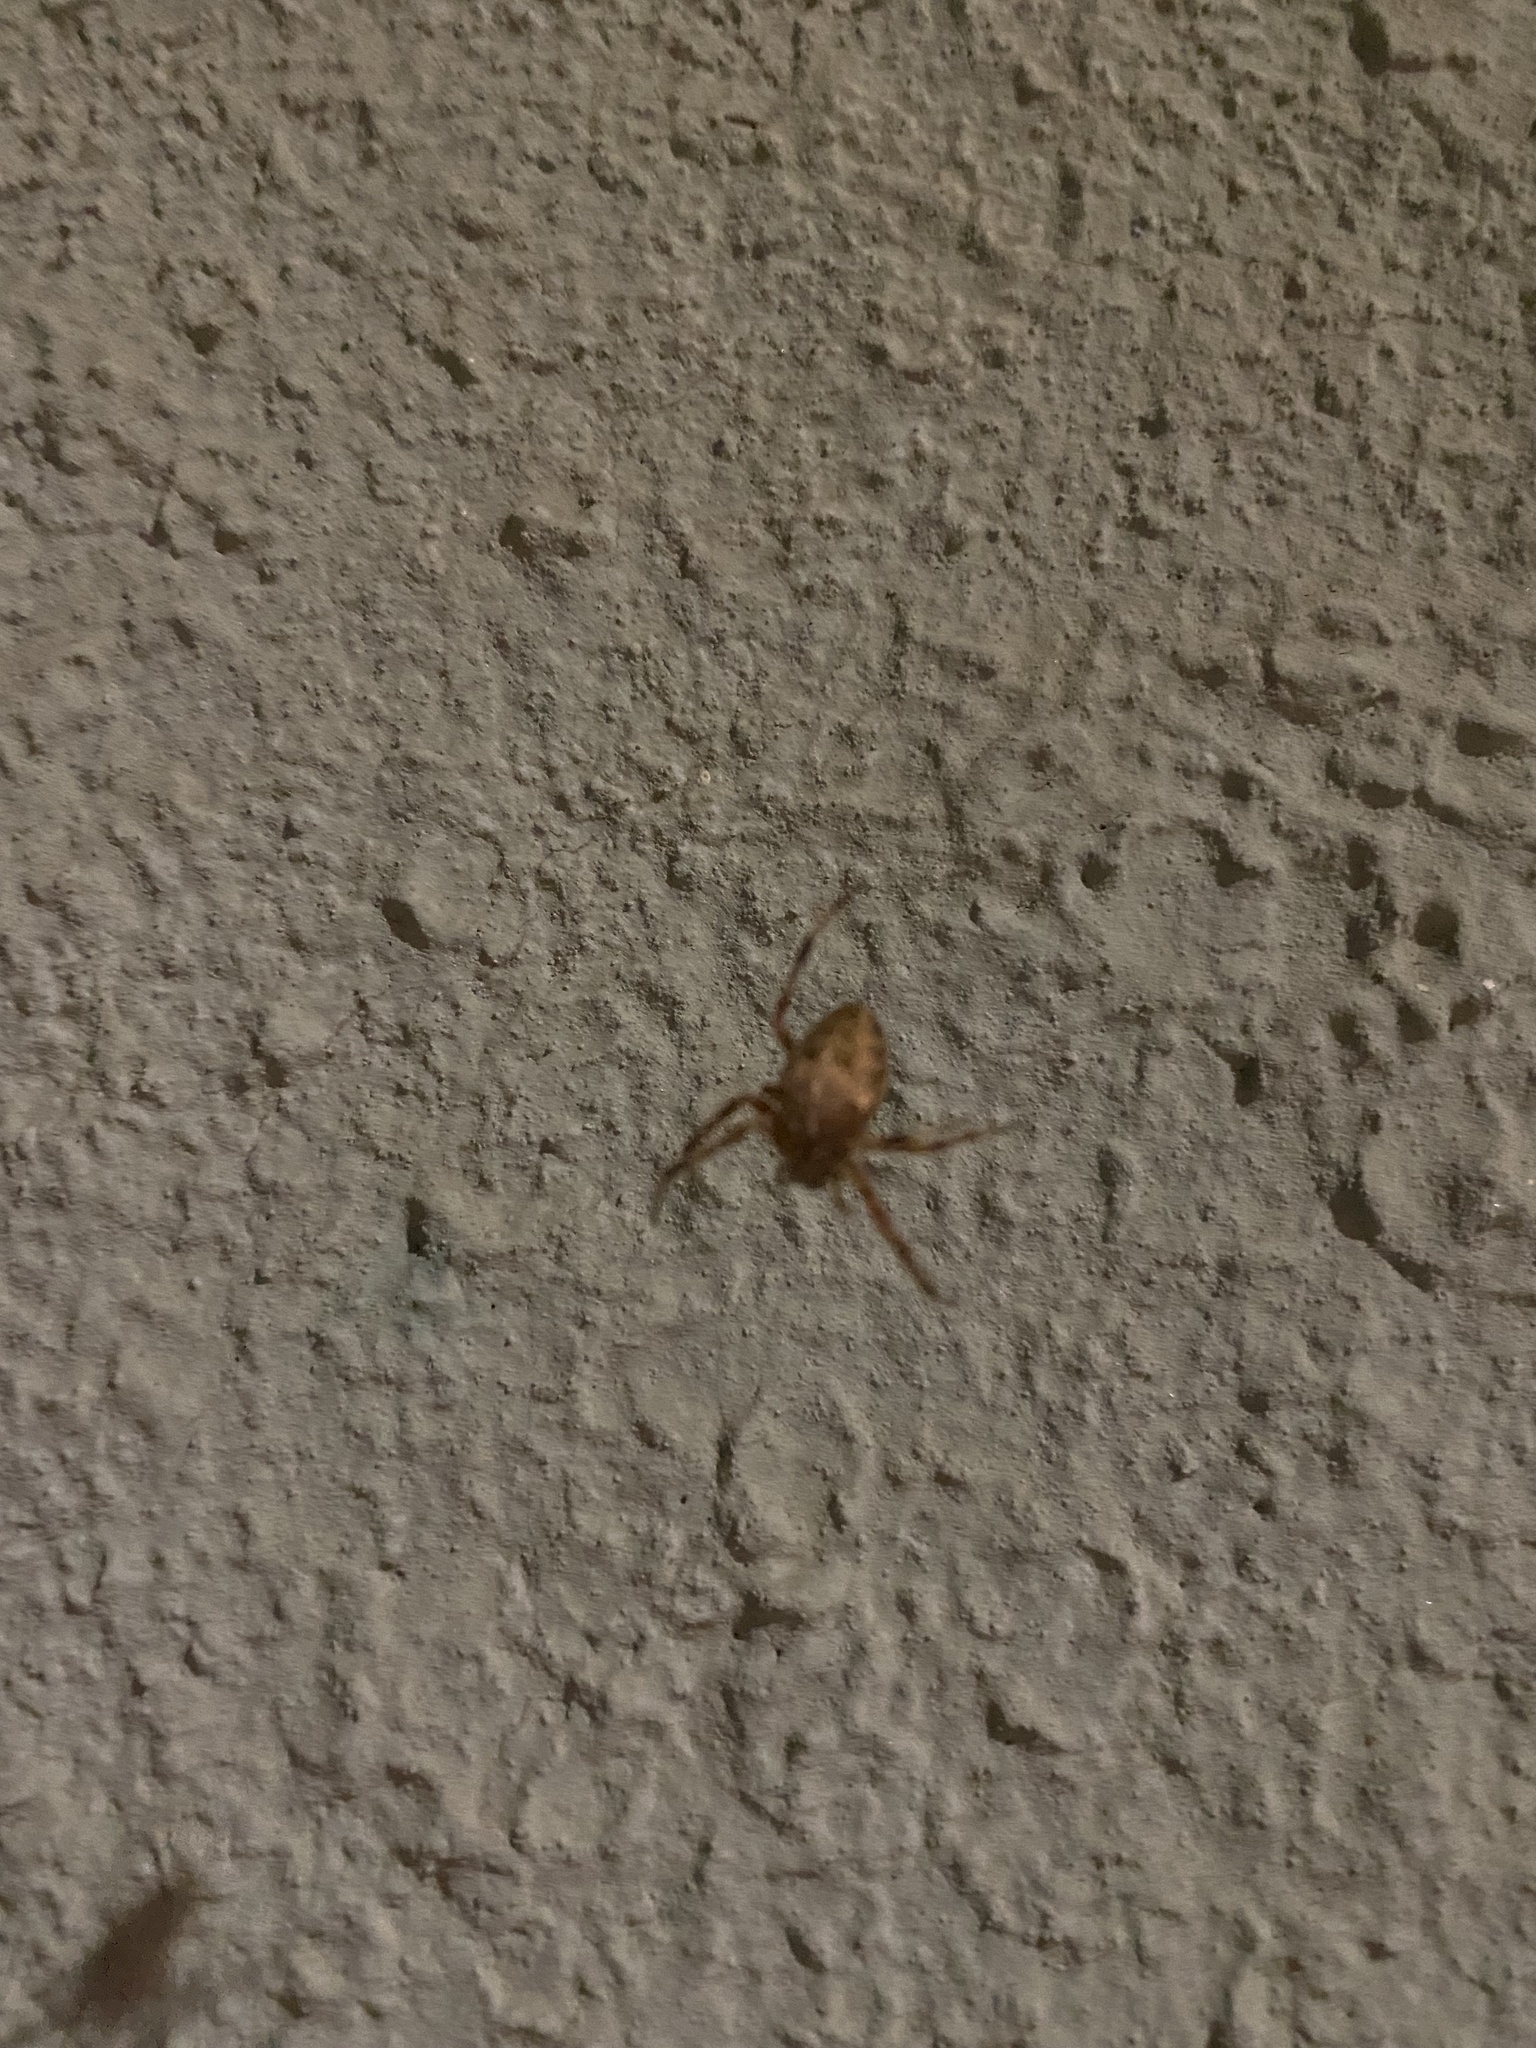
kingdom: Animalia
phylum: Arthropoda
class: Arachnida
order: Araneae
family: Araneidae
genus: Araneus
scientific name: Araneus diadematus
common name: Cross orbweaver
